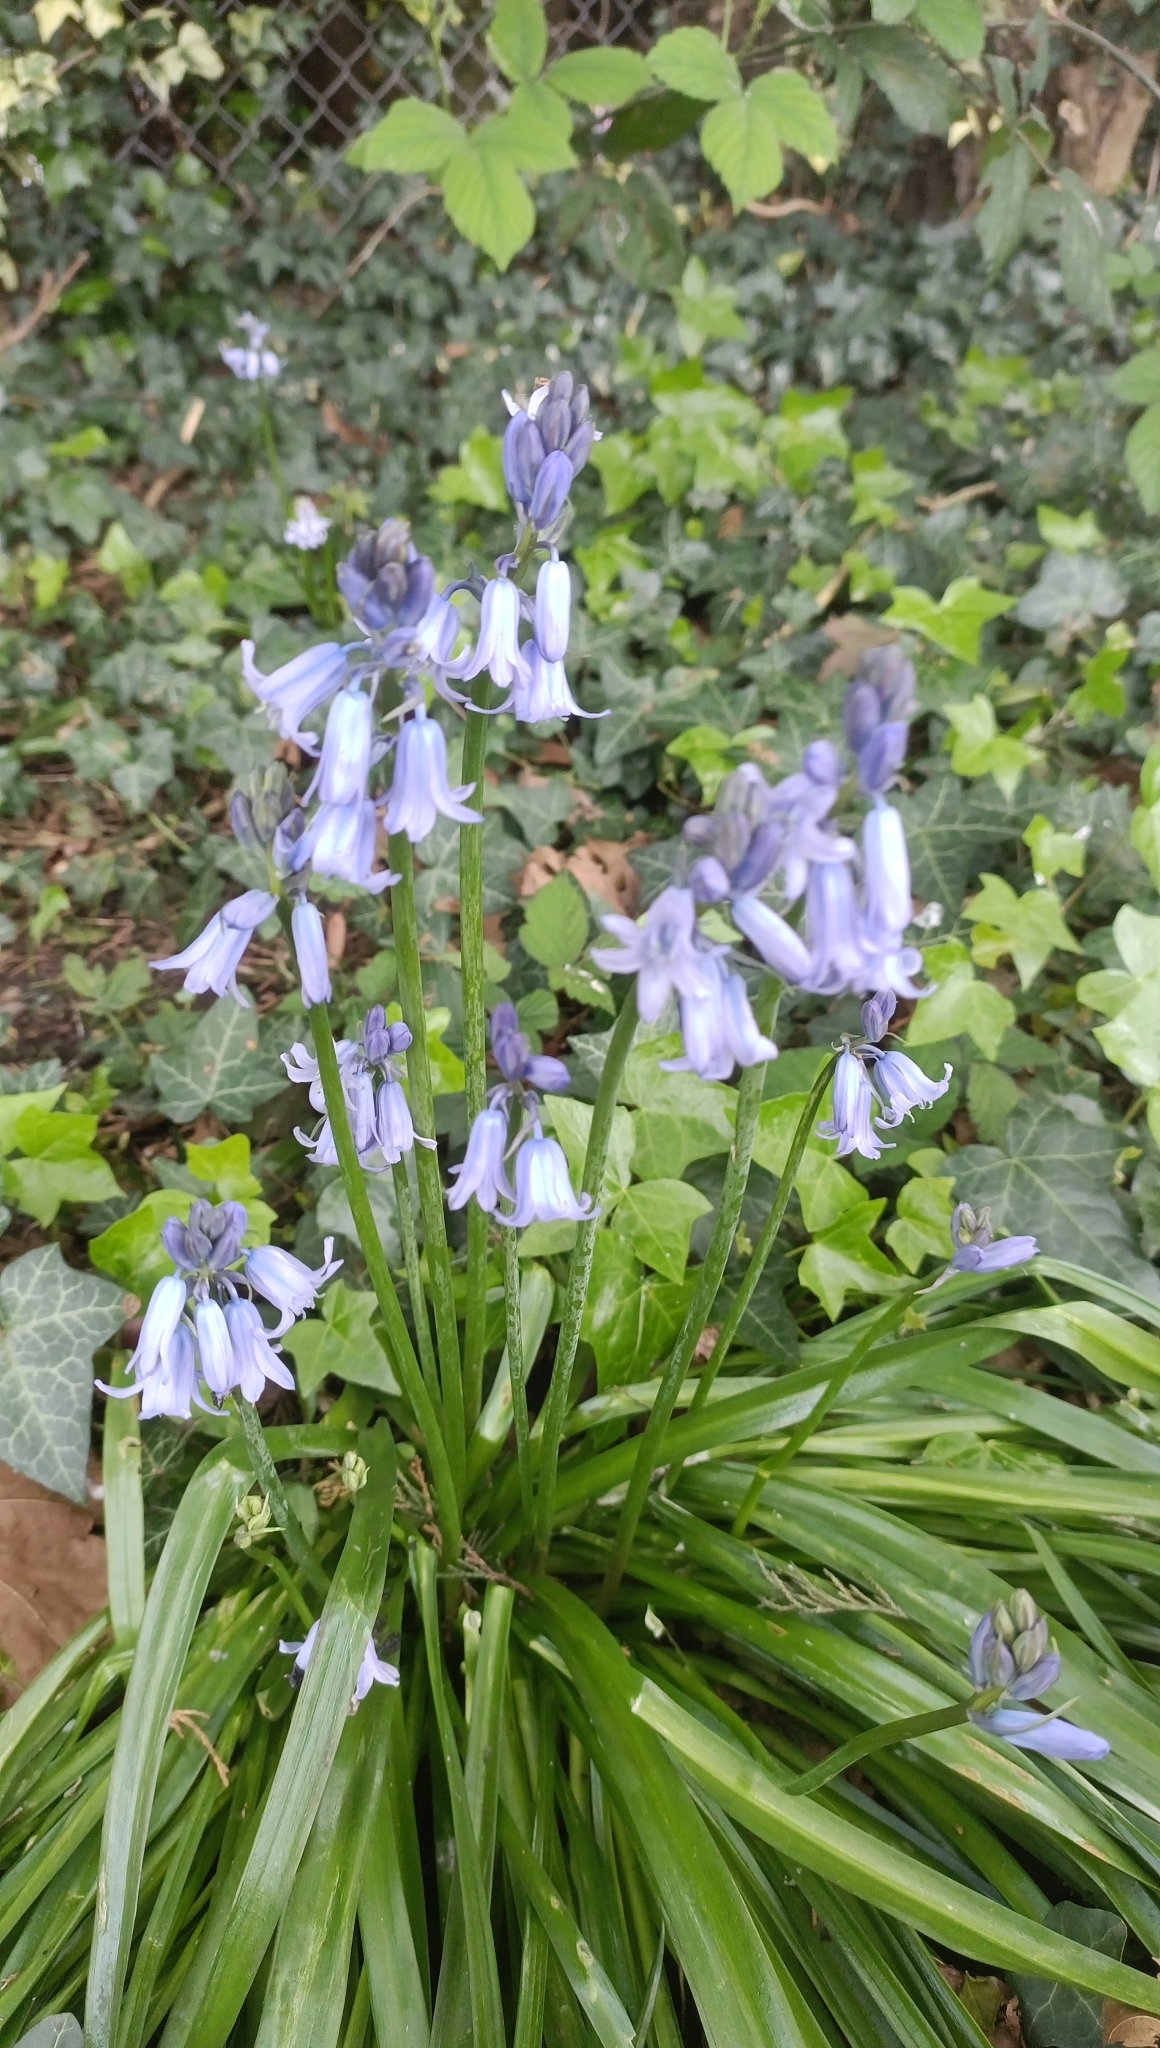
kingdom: Plantae
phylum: Tracheophyta
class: Liliopsida
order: Asparagales
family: Asparagaceae
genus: Hyacinthoides
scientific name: Hyacinthoides hispanica
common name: Spanish bluebell
